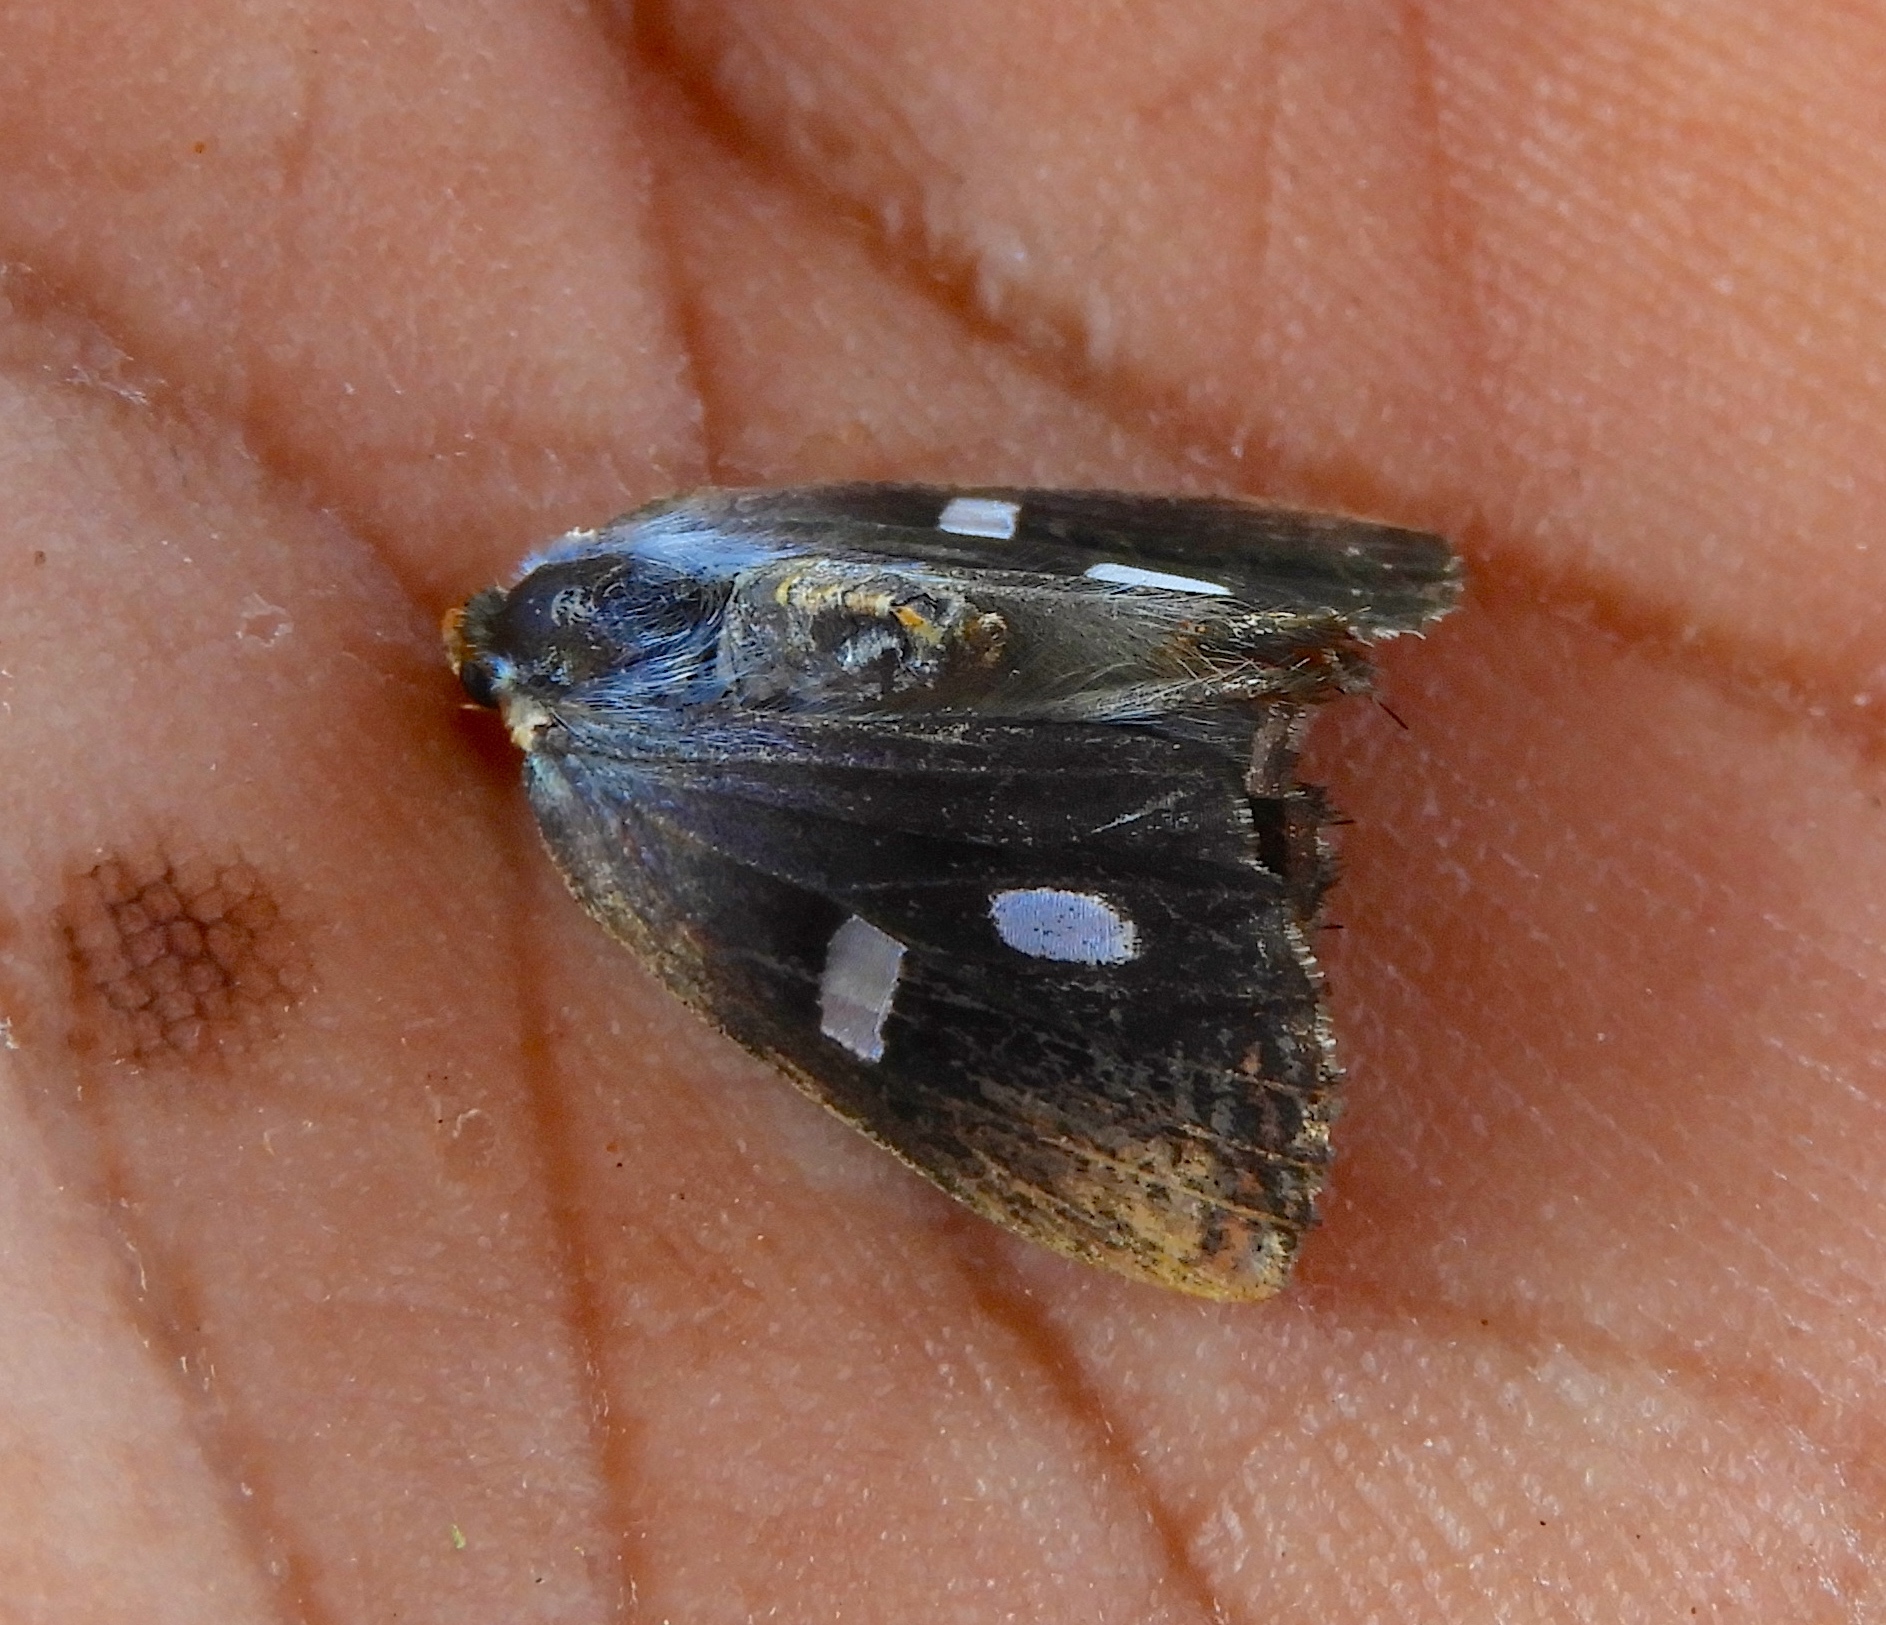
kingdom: Animalia
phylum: Arthropoda
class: Insecta
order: Lepidoptera
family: Noctuidae
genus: Alypiodes
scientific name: Alypiodes geronimo
